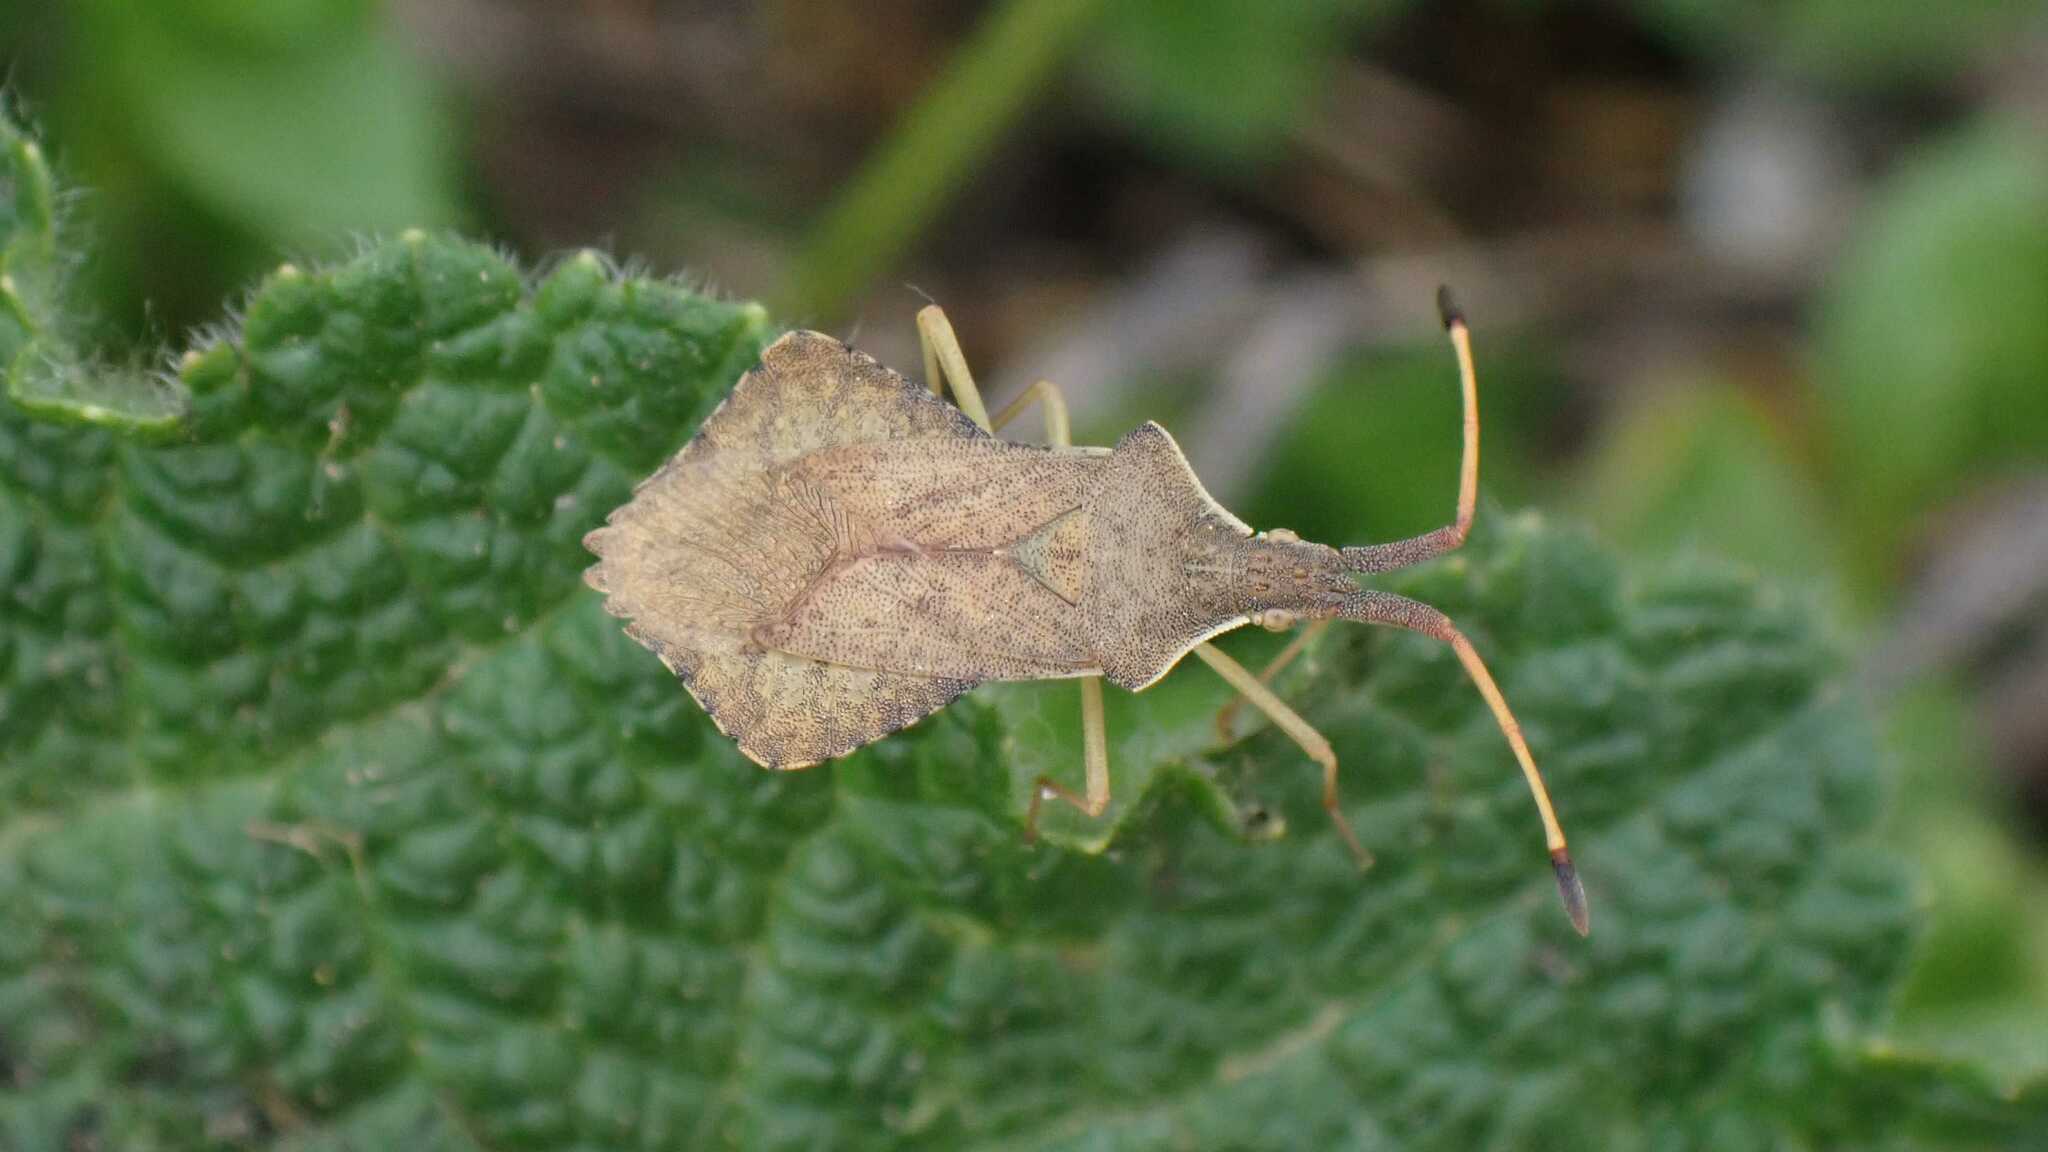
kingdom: Animalia
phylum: Arthropoda
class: Insecta
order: Hemiptera
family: Coreidae
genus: Syromastus
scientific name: Syromastus rhombeus
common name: Rhombic leatherbug
